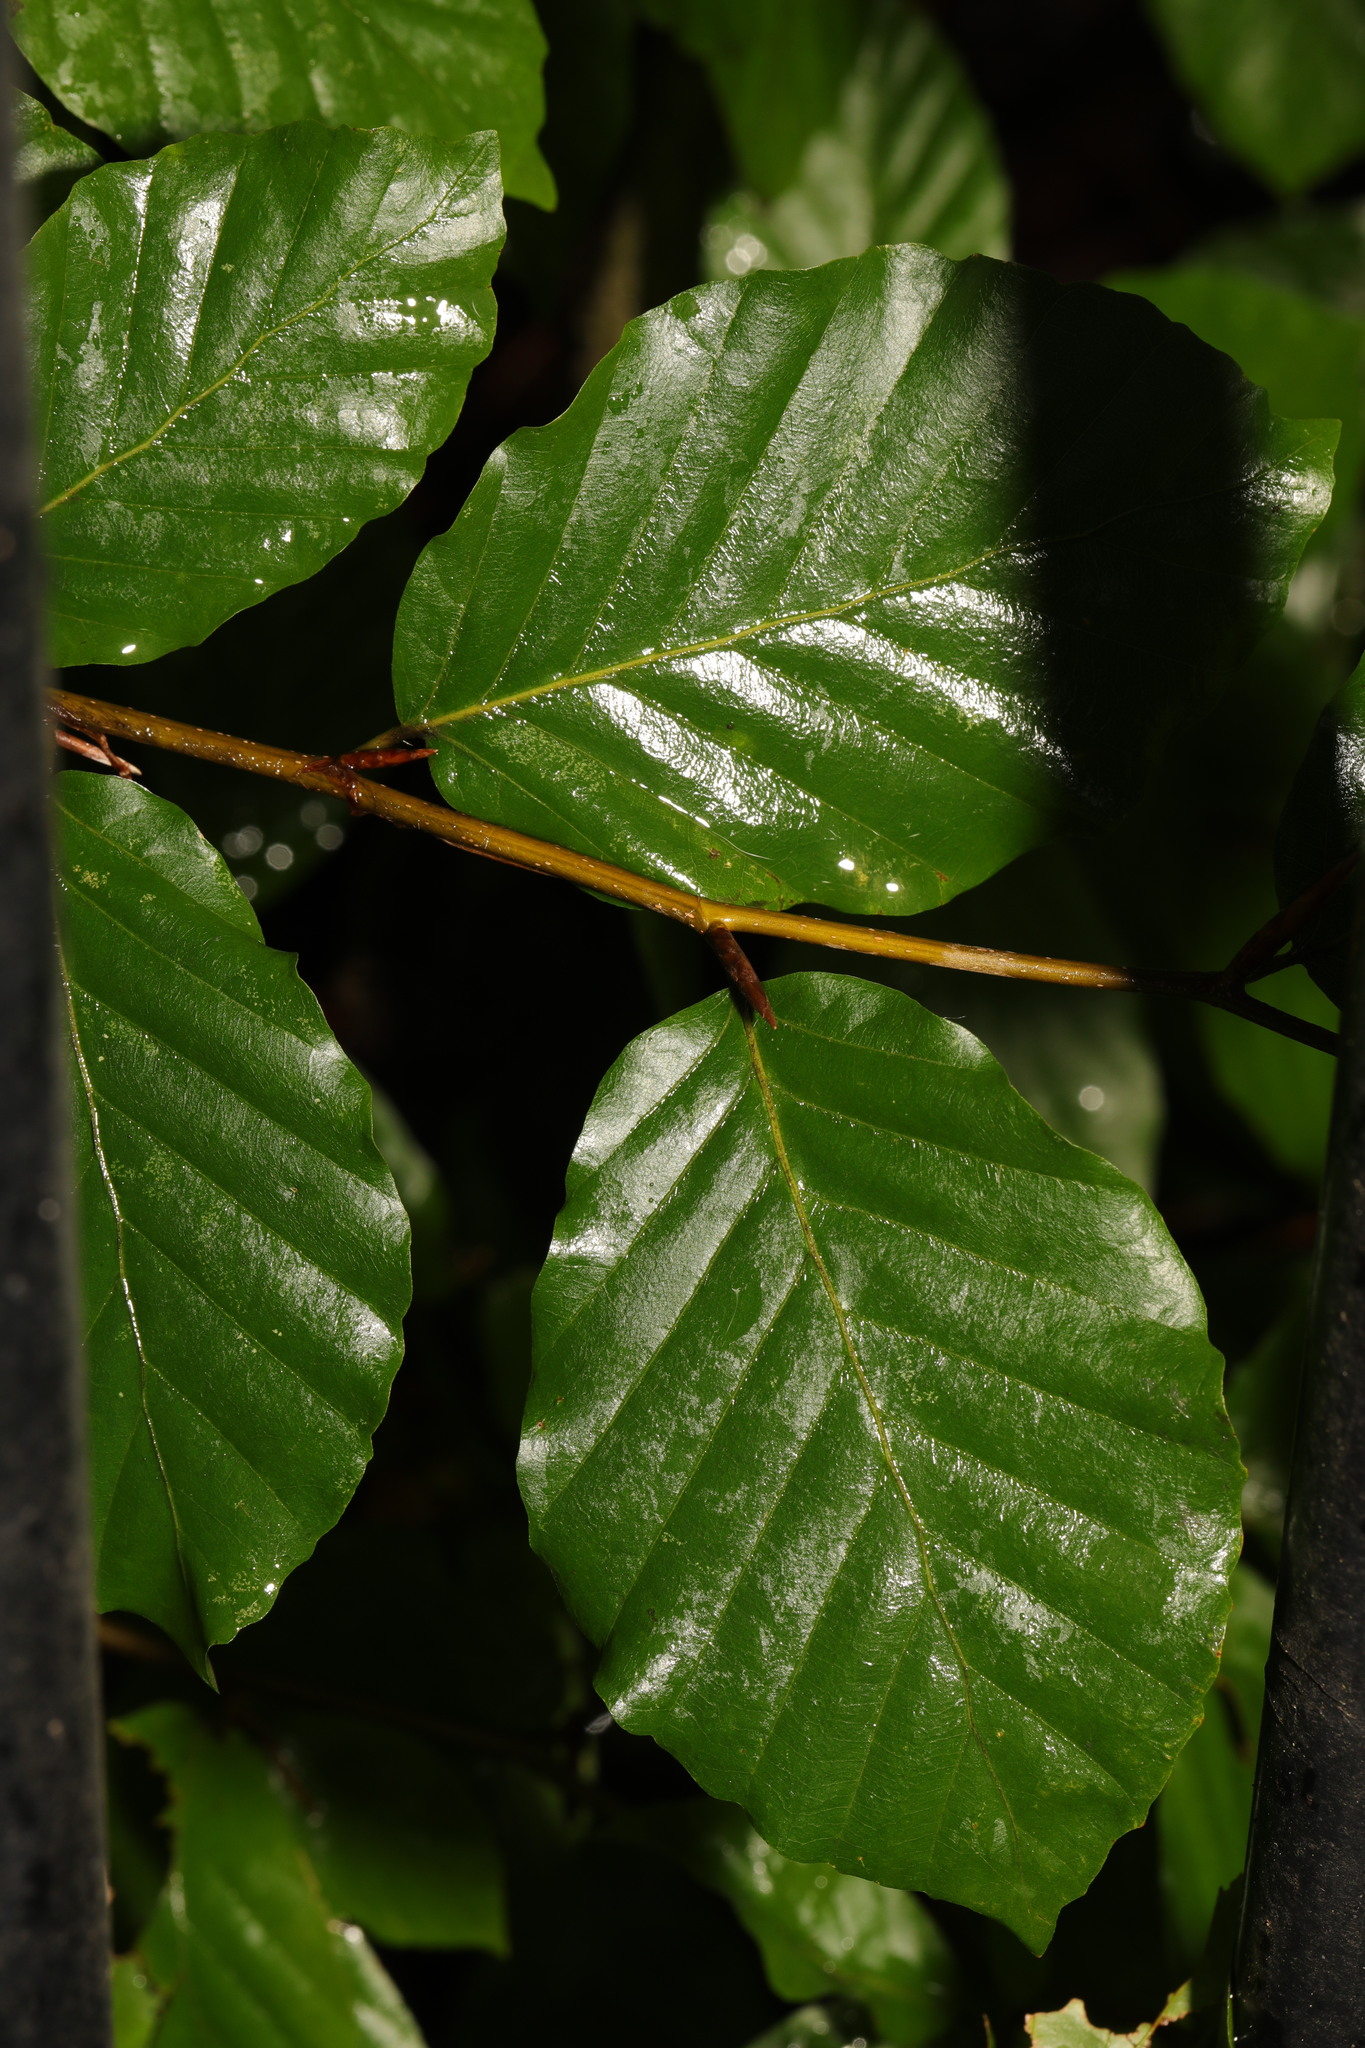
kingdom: Plantae
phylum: Tracheophyta
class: Magnoliopsida
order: Fagales
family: Fagaceae
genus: Fagus
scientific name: Fagus sylvatica
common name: Beech
